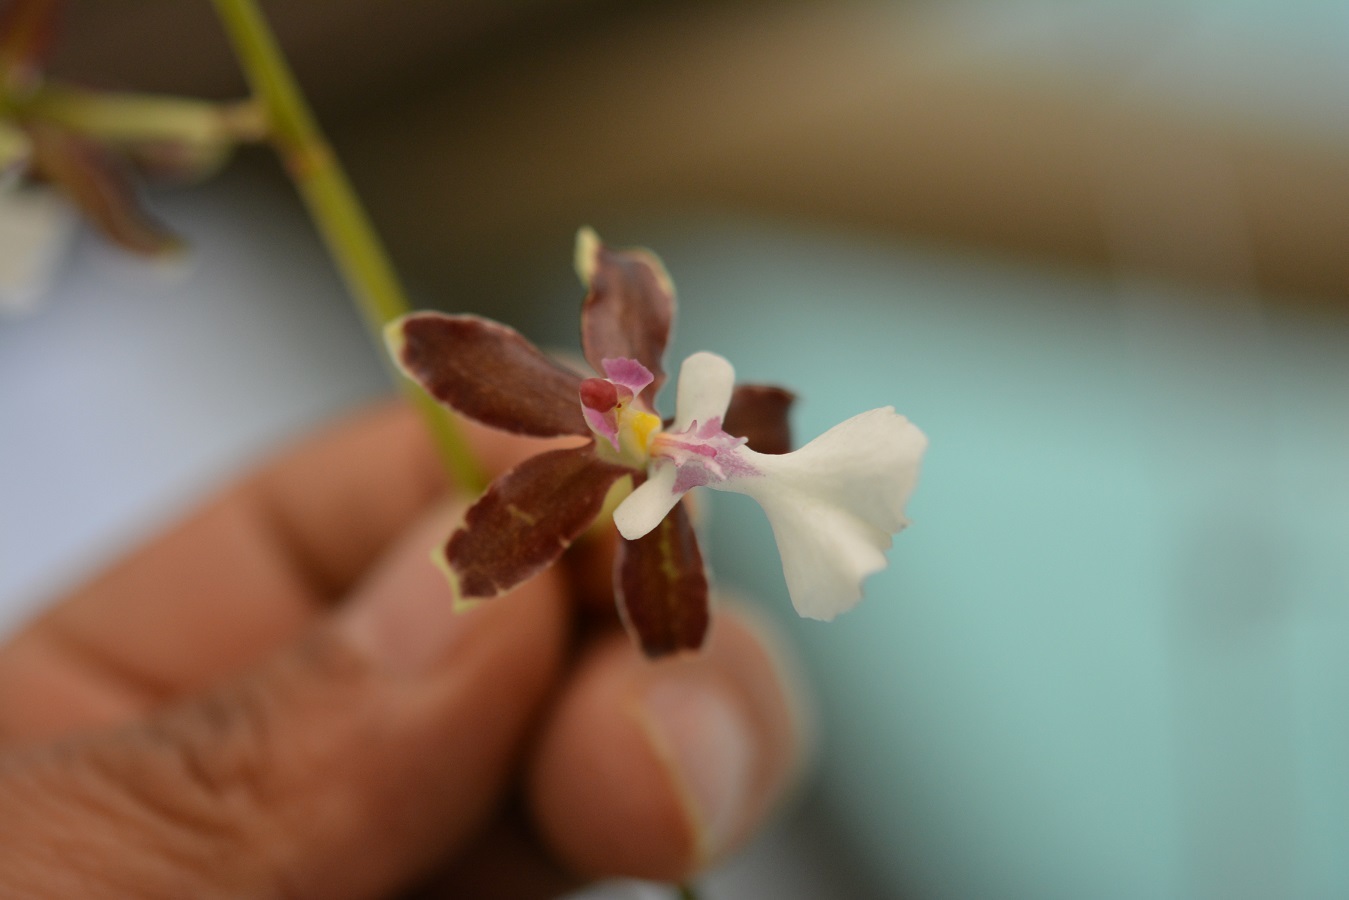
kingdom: Plantae
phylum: Tracheophyta
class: Liliopsida
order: Asparagales
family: Orchidaceae
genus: Oncidium
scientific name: Oncidium leucochilum
